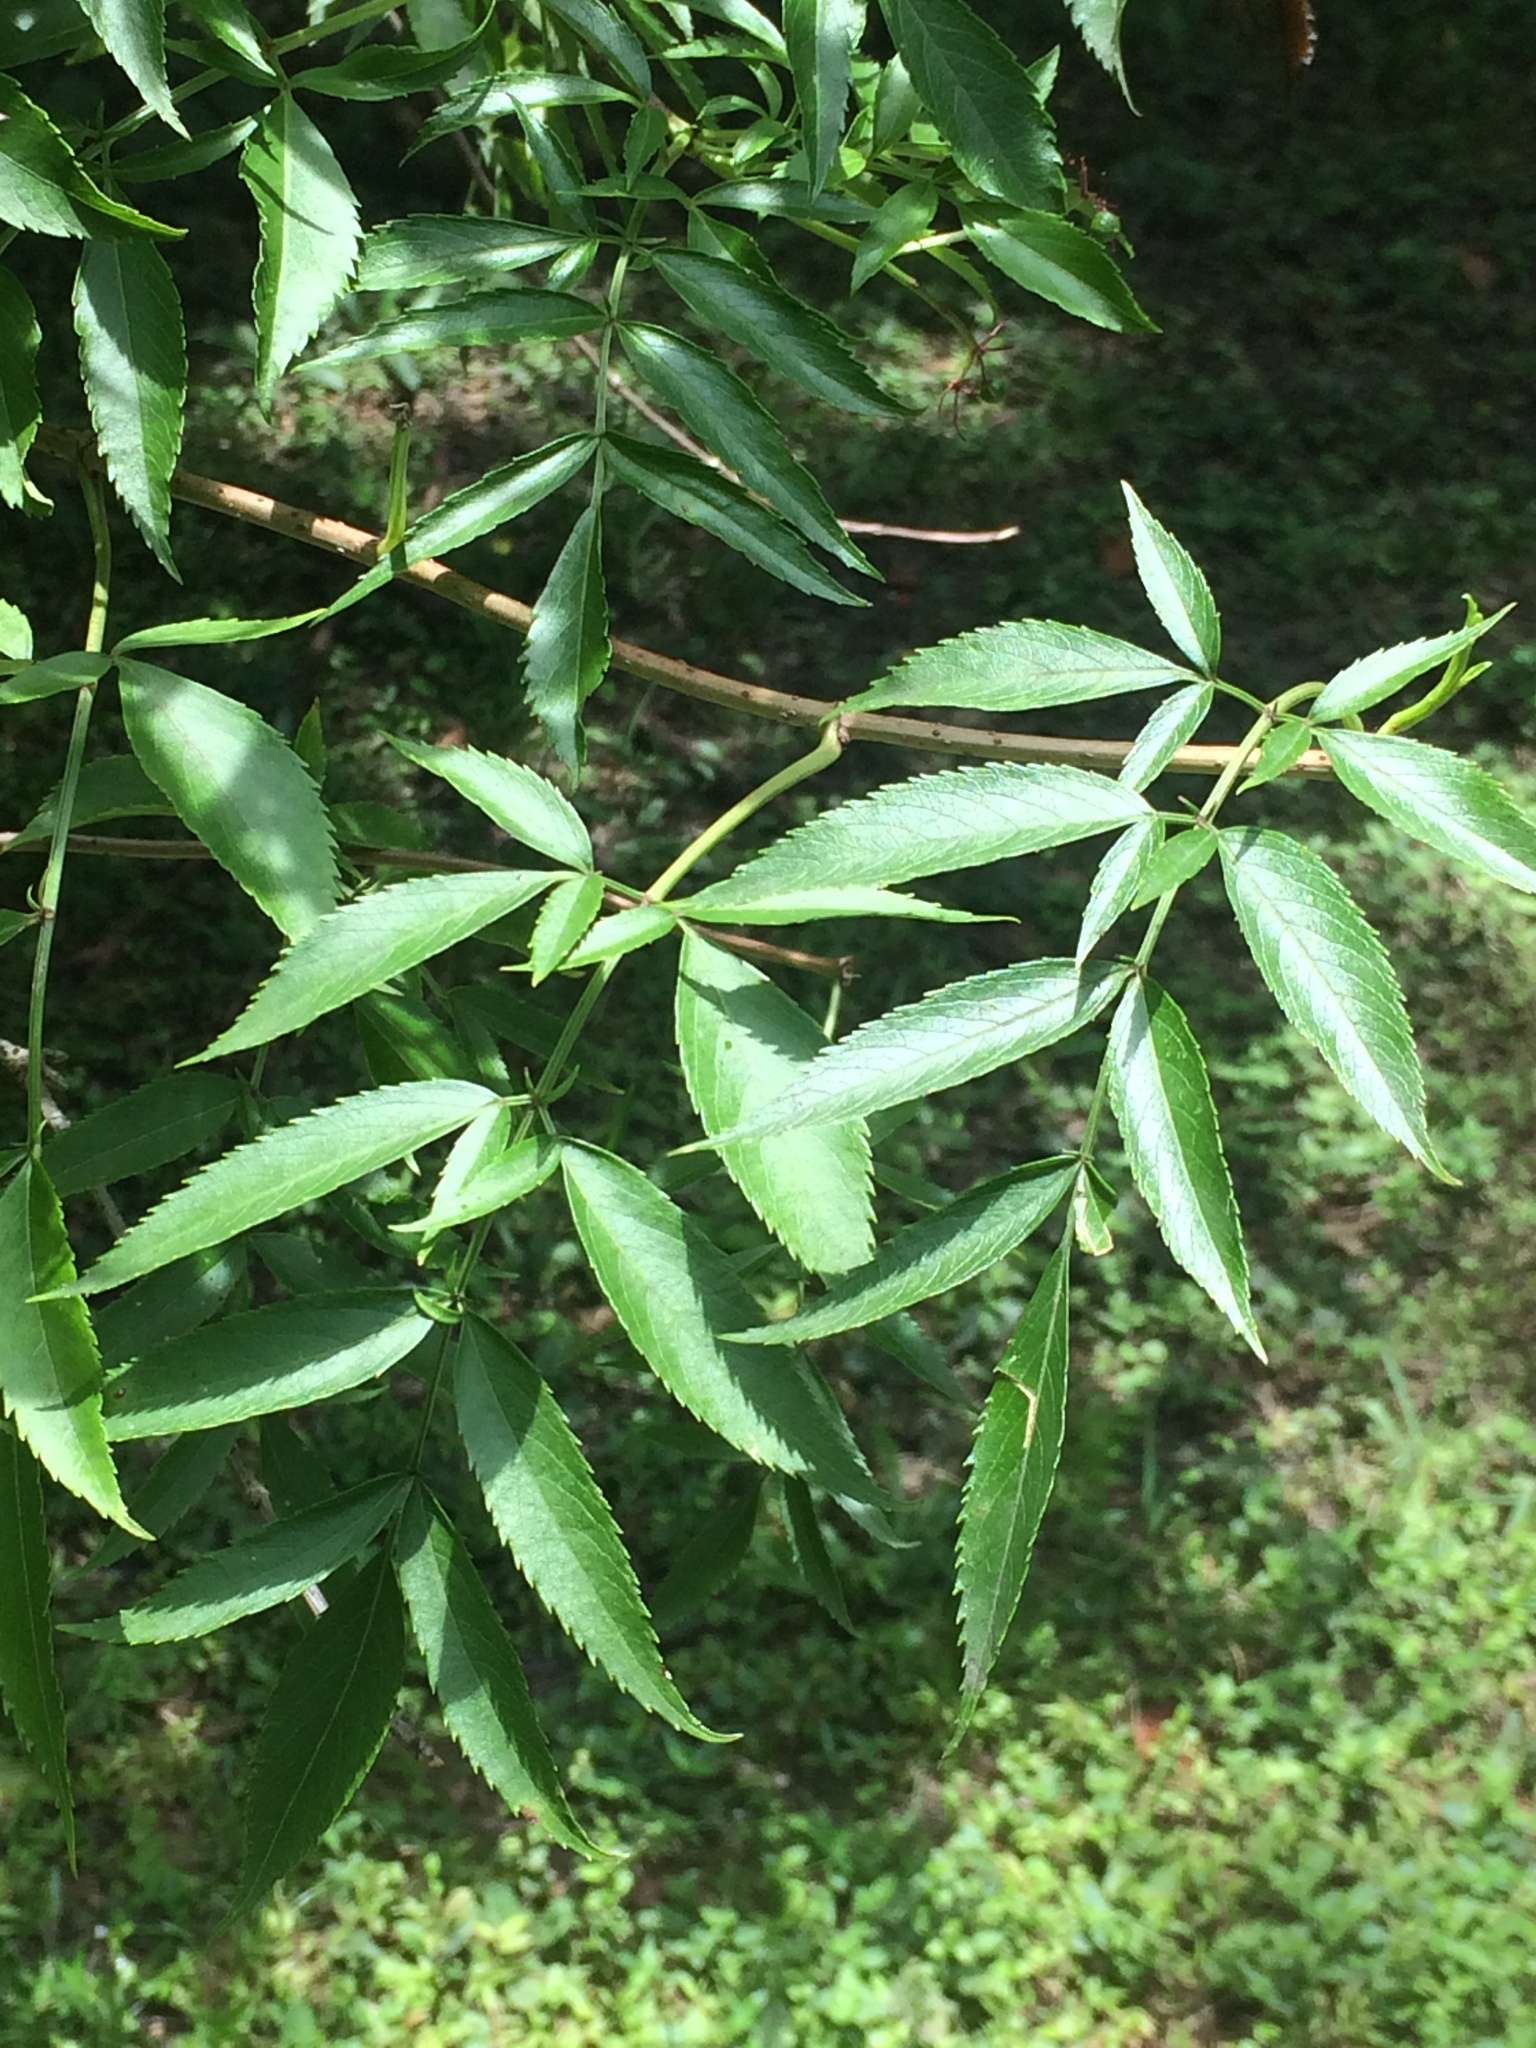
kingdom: Plantae
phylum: Tracheophyta
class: Magnoliopsida
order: Dipsacales
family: Viburnaceae
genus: Sambucus
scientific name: Sambucus canadensis
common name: American elder
